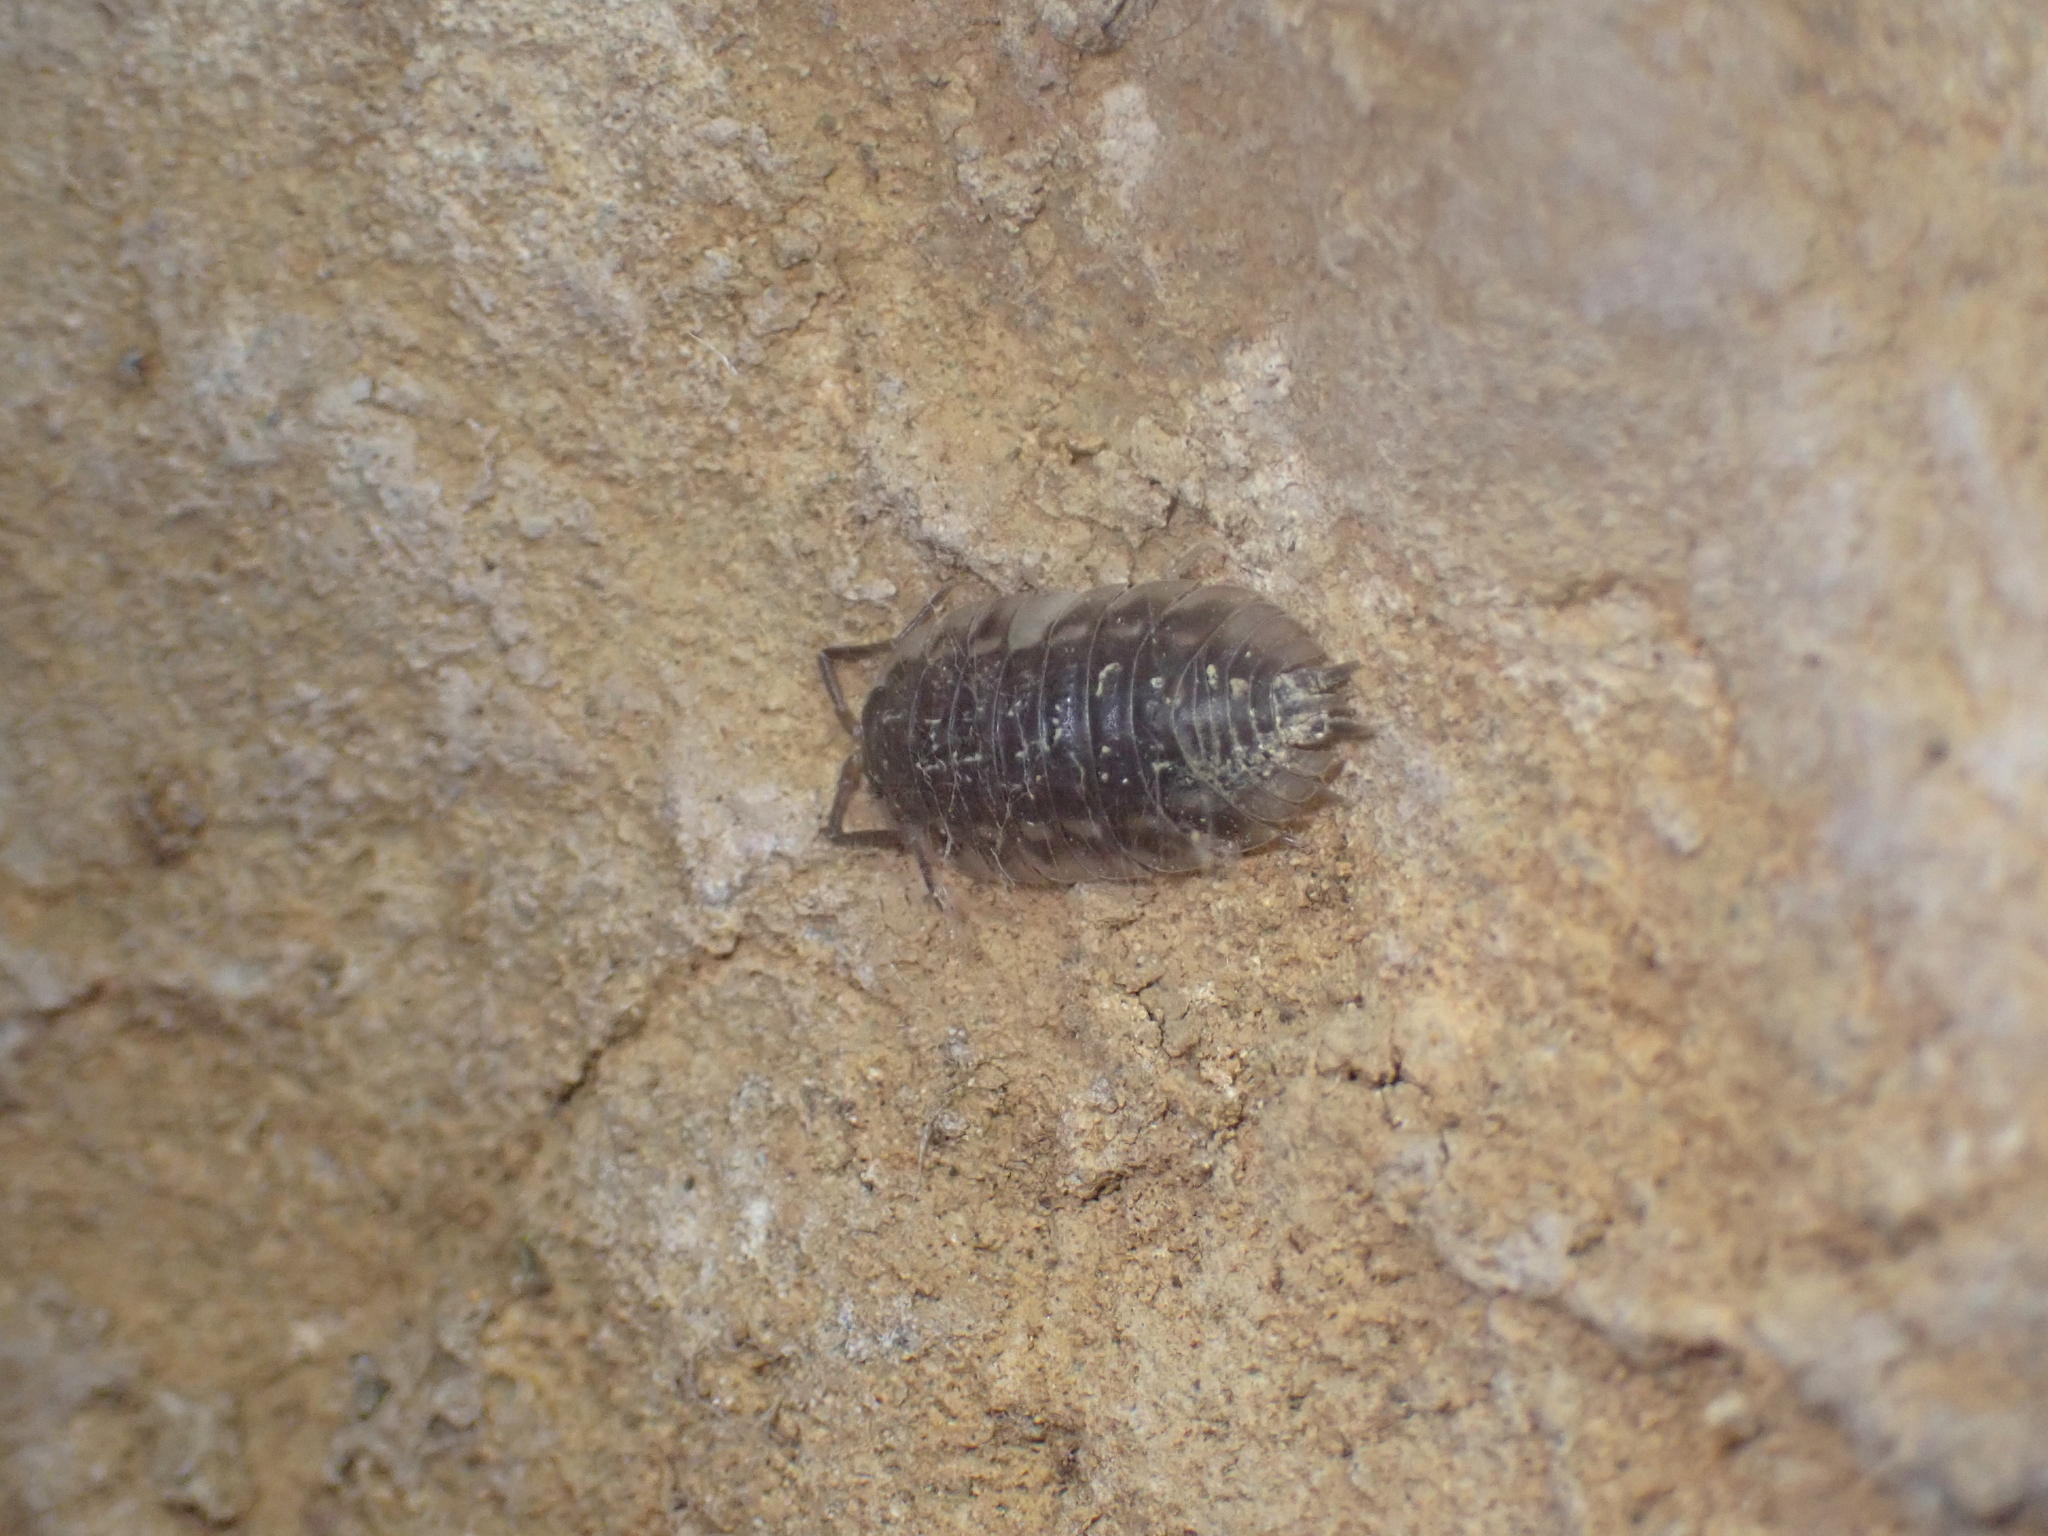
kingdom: Animalia
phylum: Arthropoda
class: Malacostraca
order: Isopoda
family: Oniscidae
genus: Oniscus
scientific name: Oniscus asellus
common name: Common shiny woodlouse
